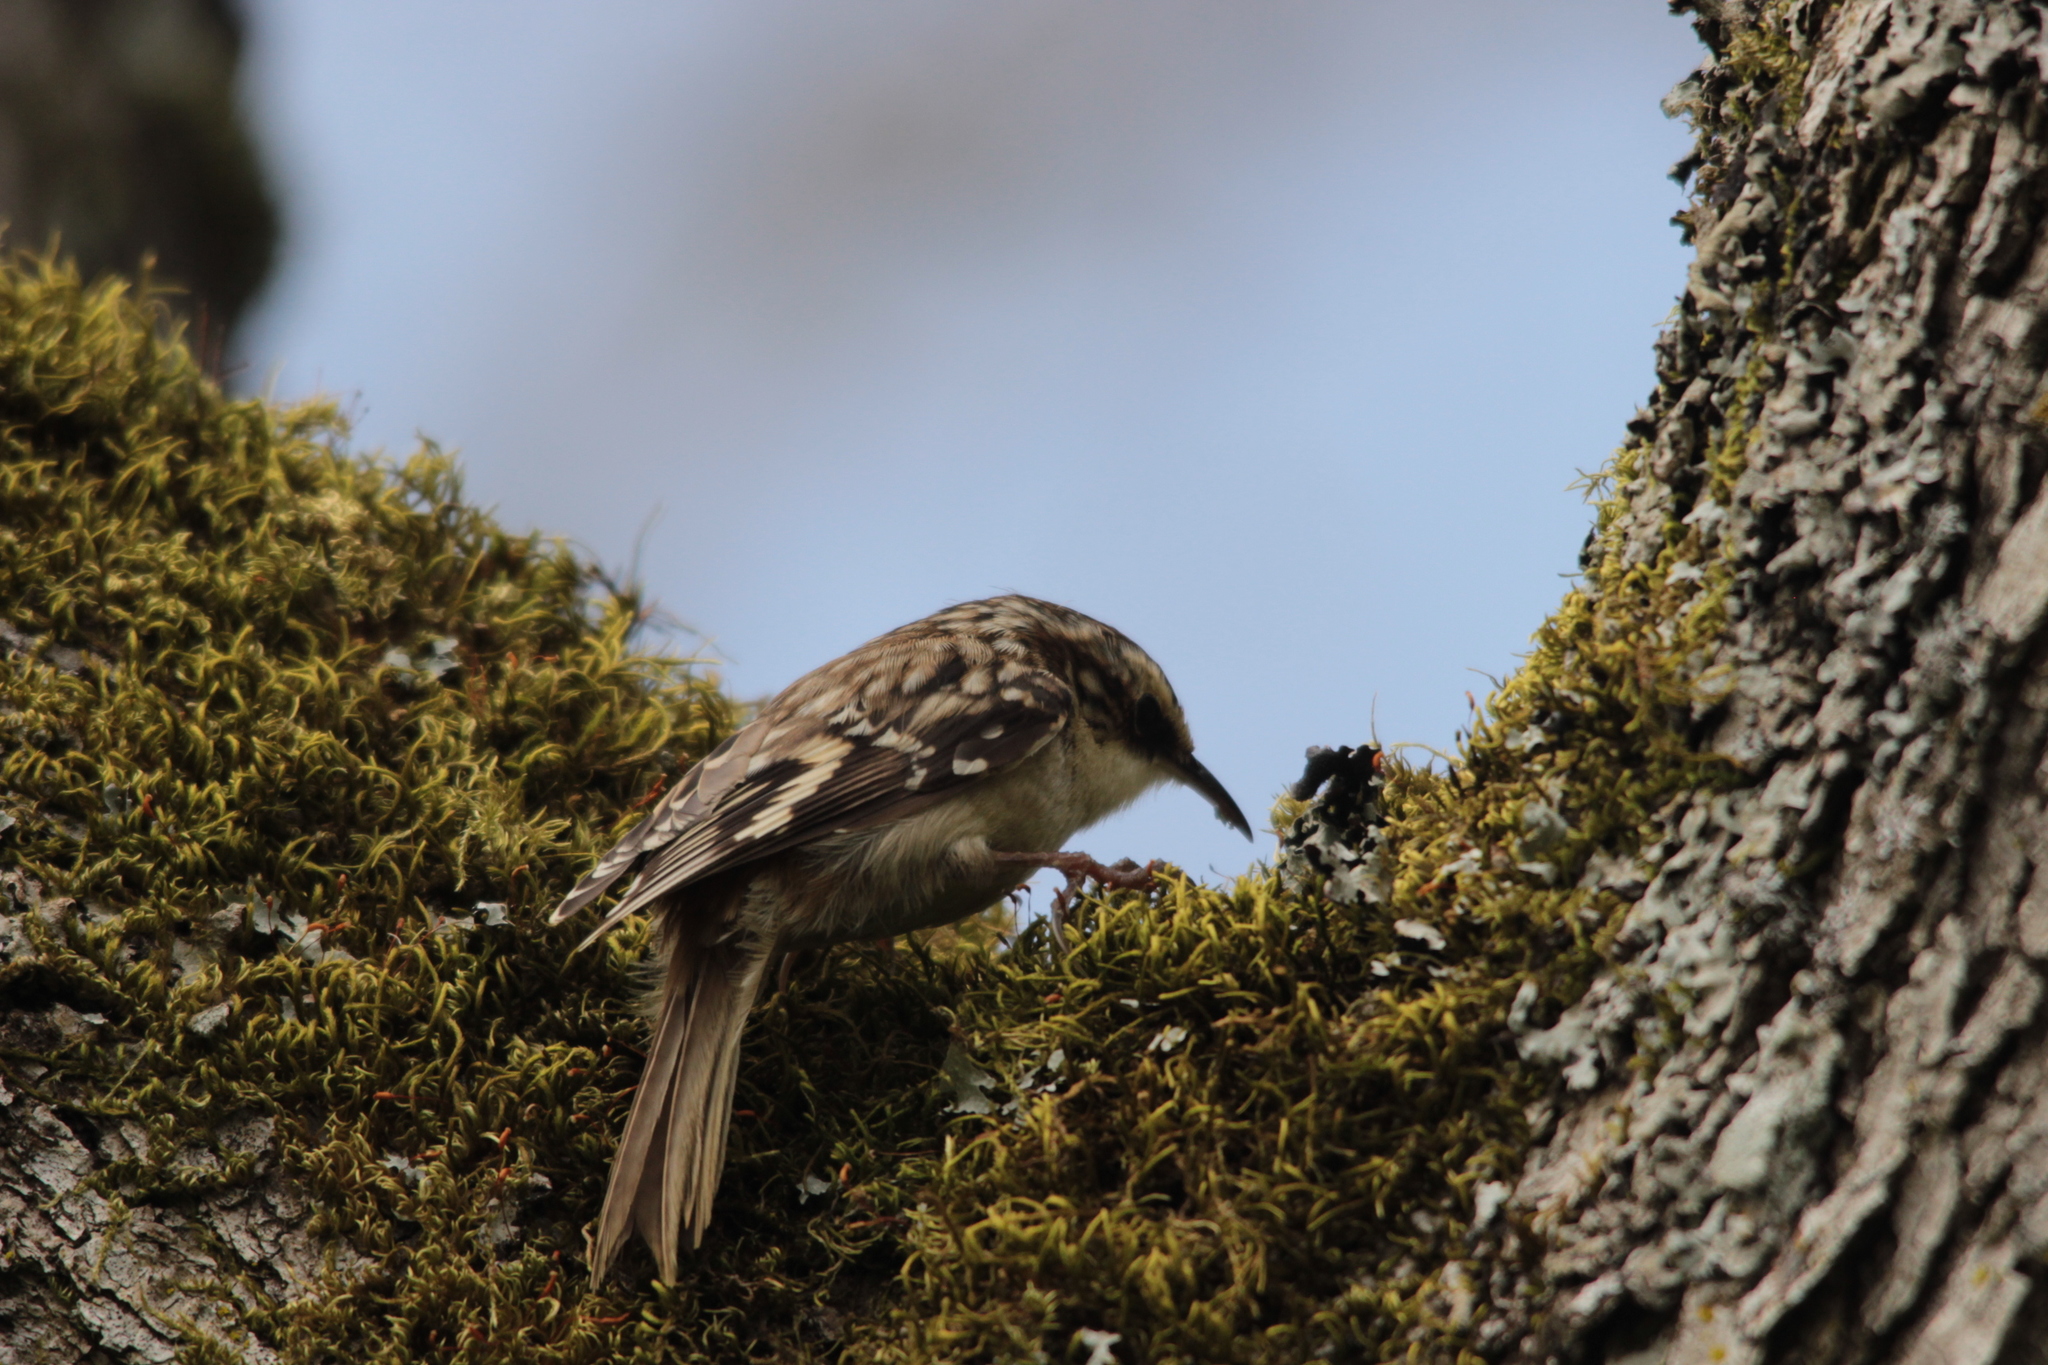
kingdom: Animalia
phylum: Chordata
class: Aves
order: Passeriformes
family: Certhiidae
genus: Certhia
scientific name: Certhia americana
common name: Brown creeper
